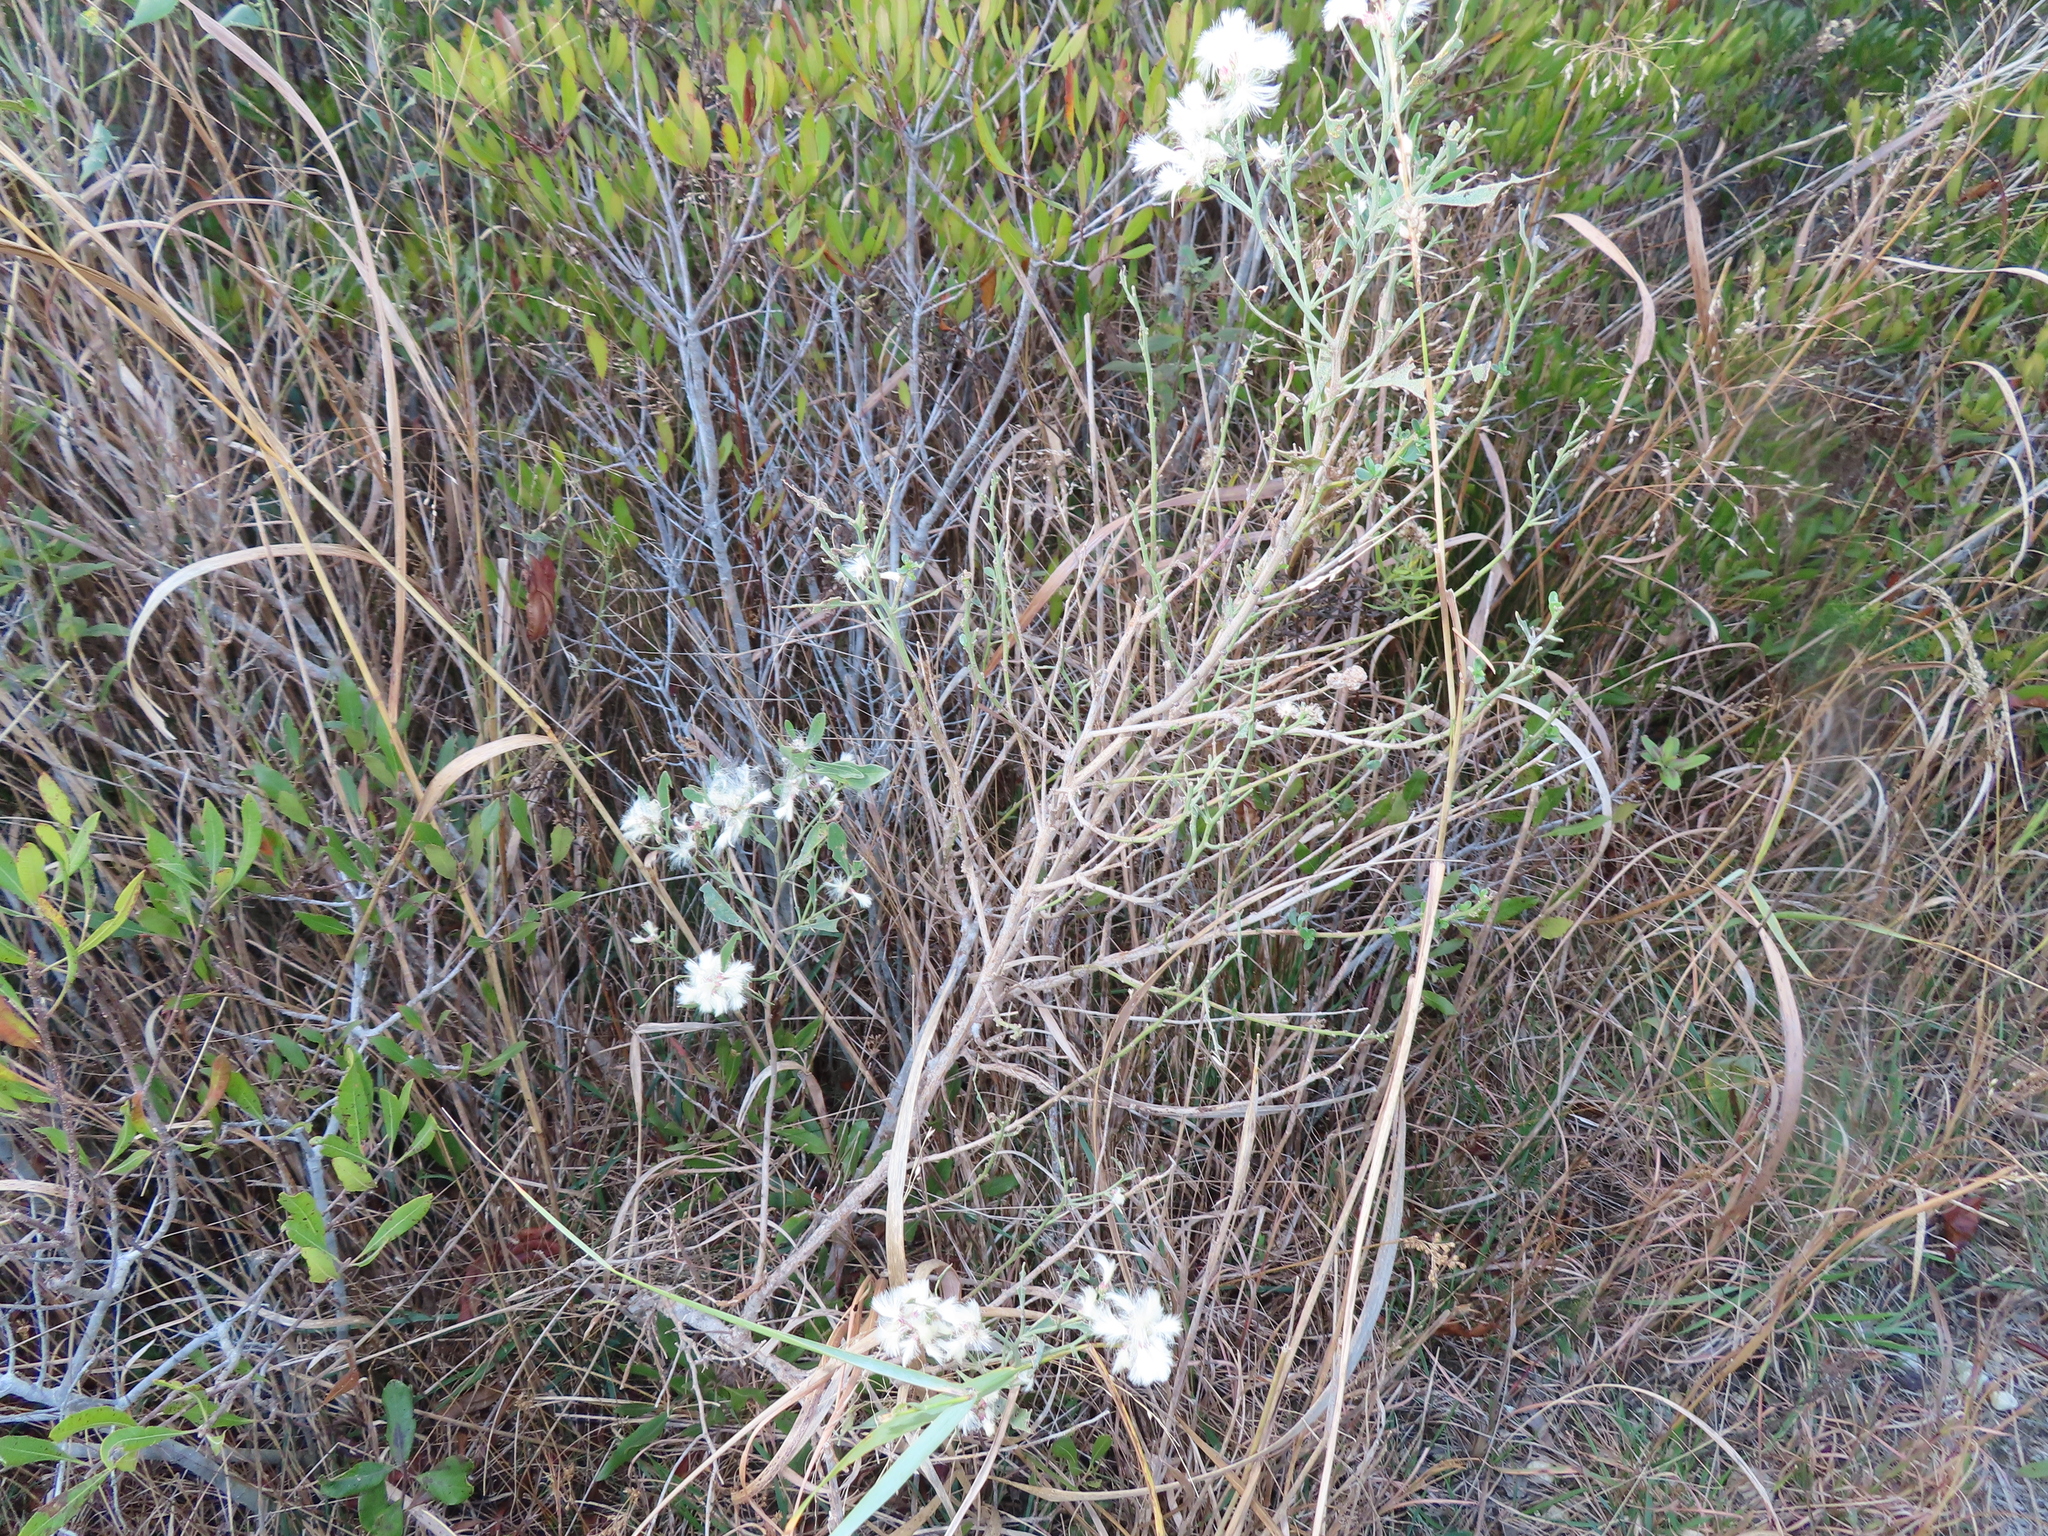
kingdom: Plantae
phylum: Tracheophyta
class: Magnoliopsida
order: Asterales
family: Asteraceae
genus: Baccharis
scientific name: Baccharis halimifolia
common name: Eastern baccharis
